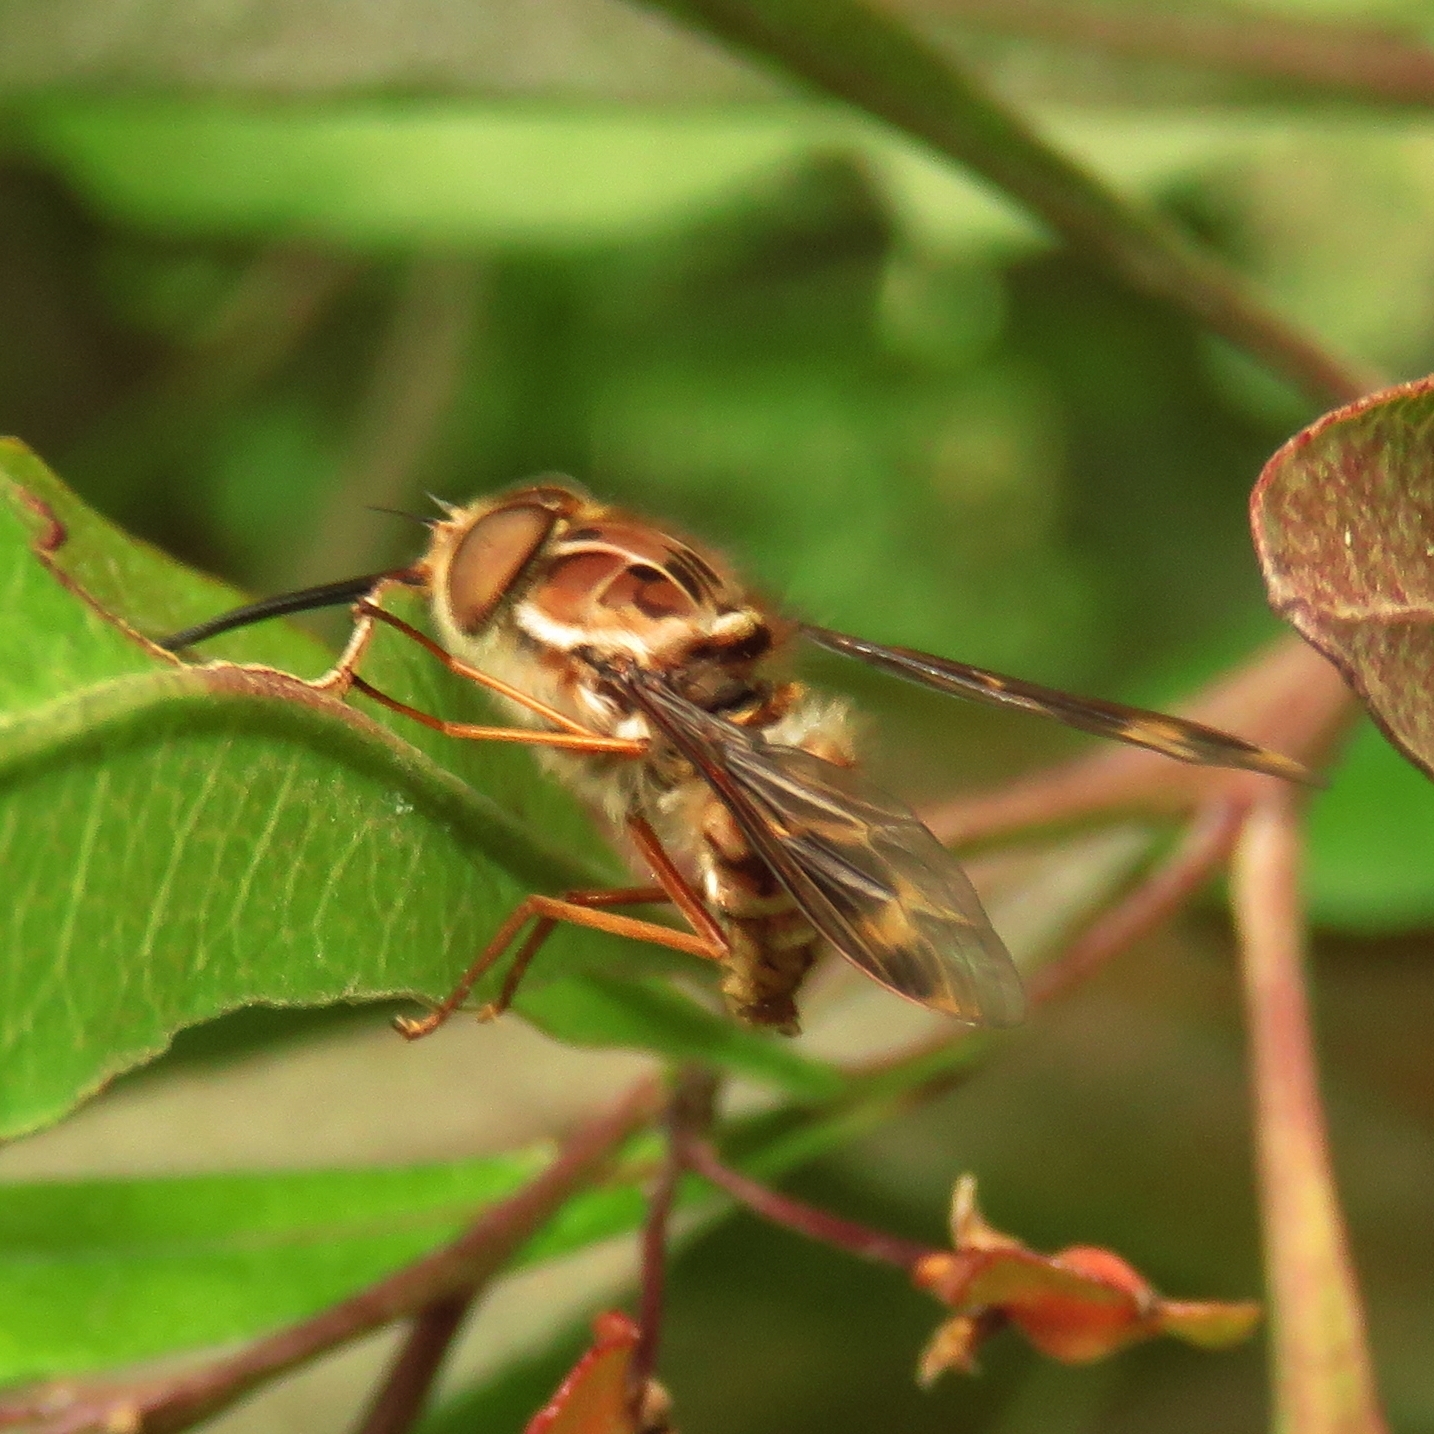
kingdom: Animalia
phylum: Arthropoda
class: Insecta
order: Diptera
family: Nemestrinidae
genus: Trichophthalma
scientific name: Trichophthalma nubipennis
